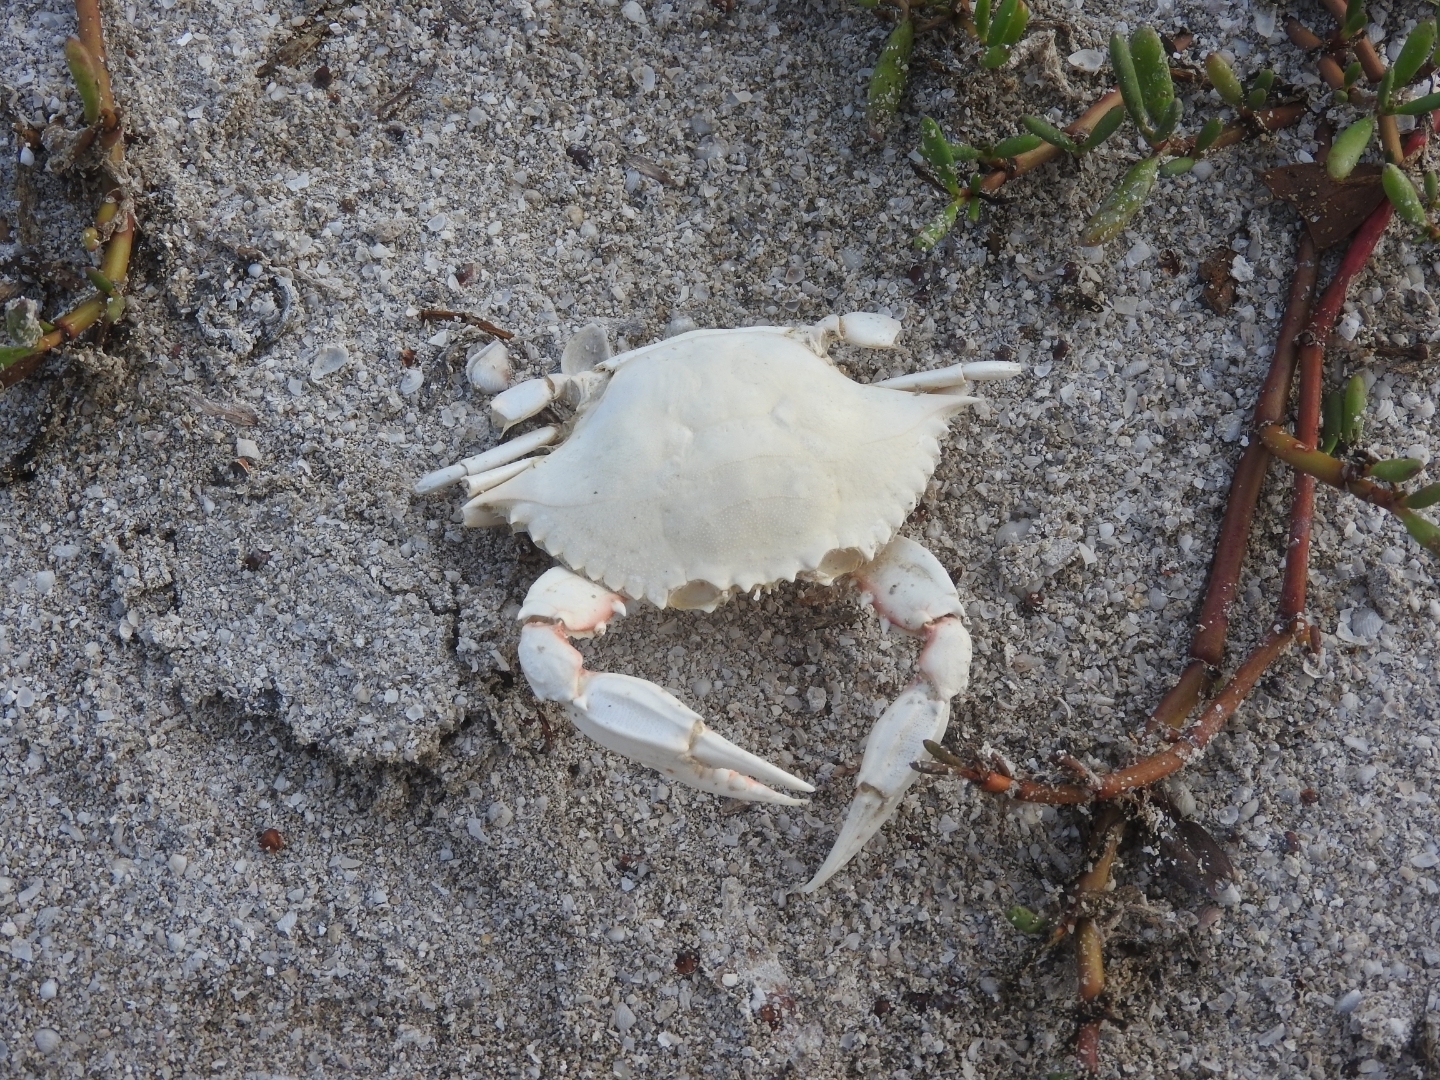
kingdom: Animalia
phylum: Arthropoda
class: Malacostraca
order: Decapoda
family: Portunidae
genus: Callinectes
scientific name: Callinectes sapidus
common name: Blue crab
